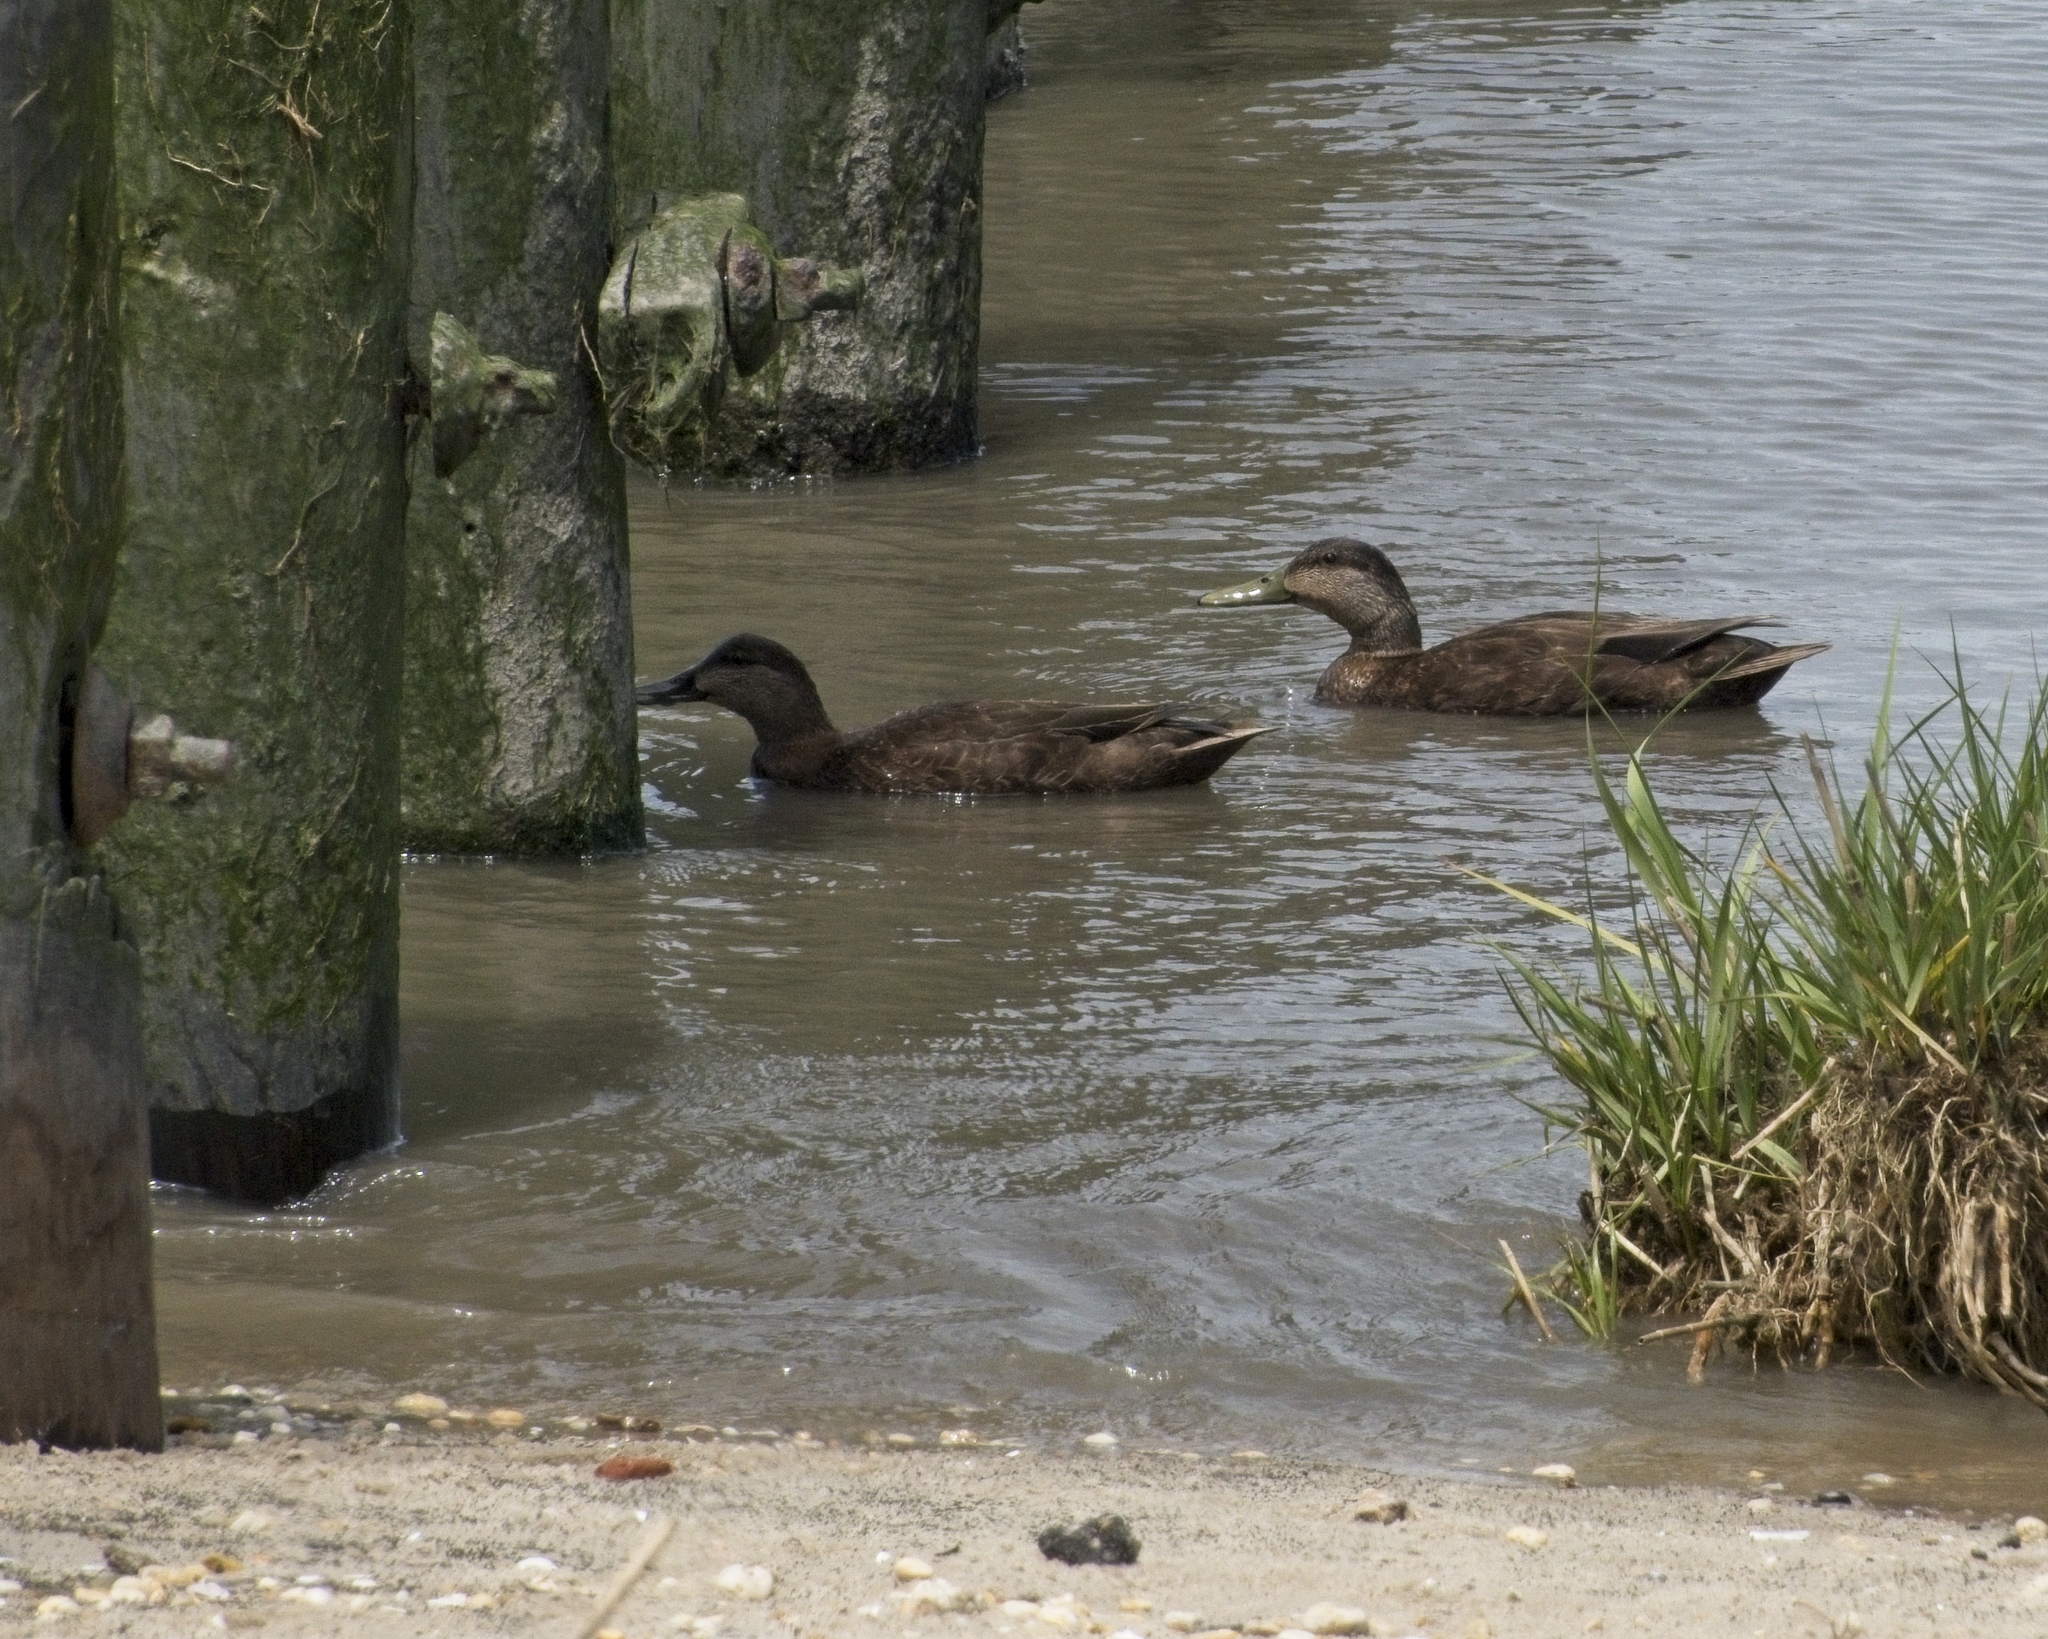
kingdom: Animalia
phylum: Chordata
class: Aves
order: Anseriformes
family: Anatidae
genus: Anas
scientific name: Anas rubripes
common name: American black duck
